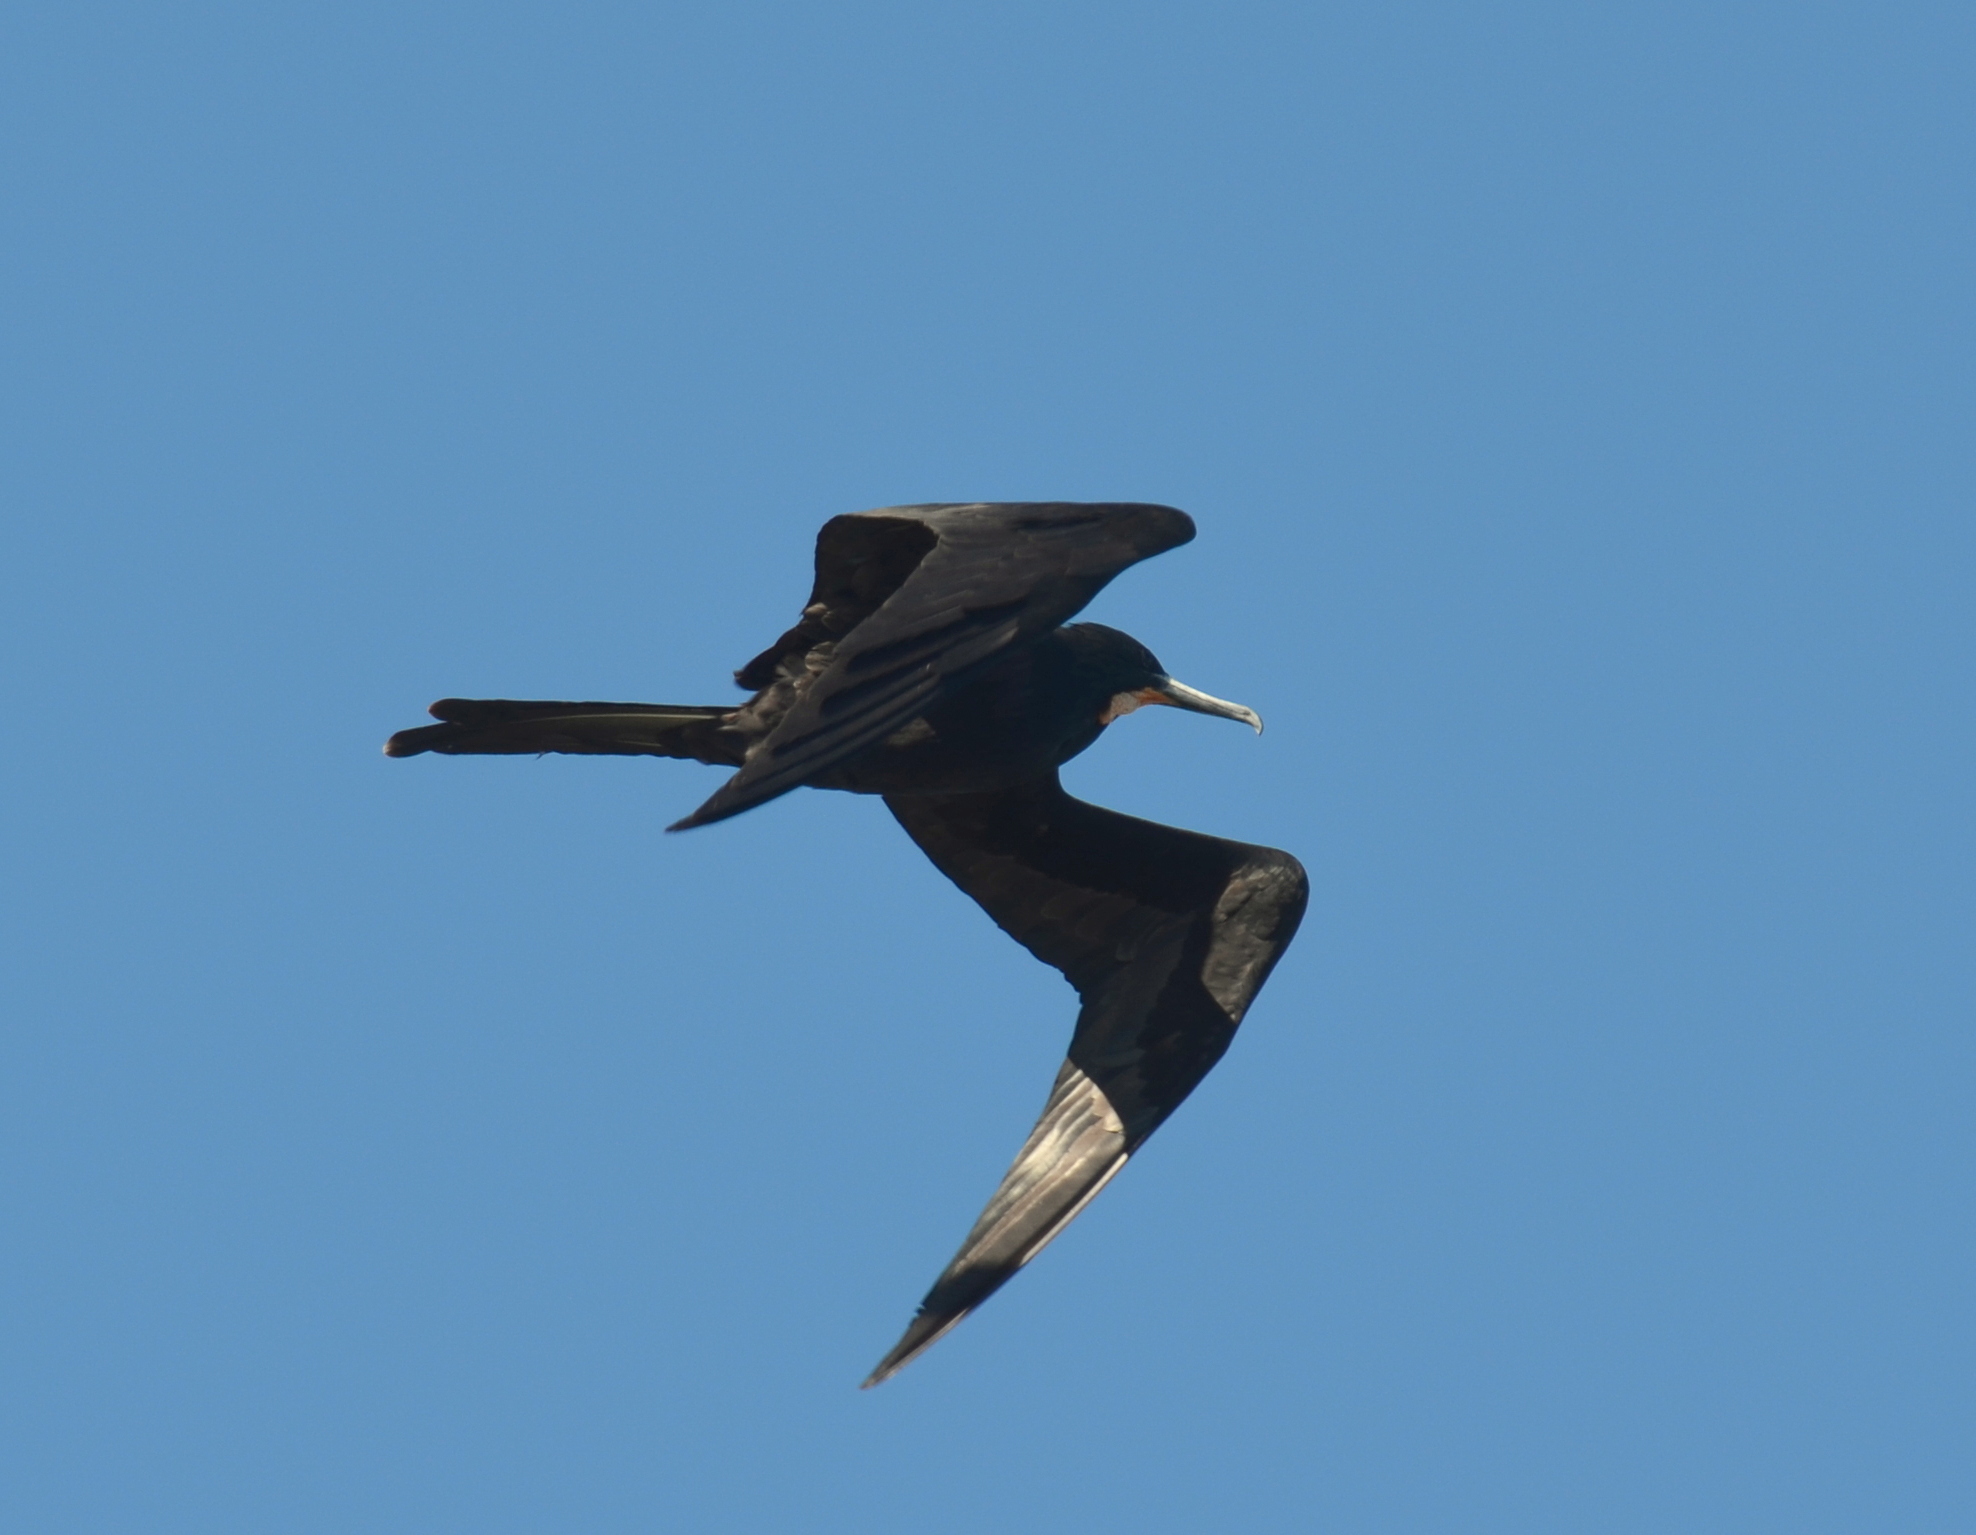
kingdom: Animalia
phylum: Chordata
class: Aves
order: Suliformes
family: Fregatidae
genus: Fregata
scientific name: Fregata magnificens
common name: Magnificent frigatebird
